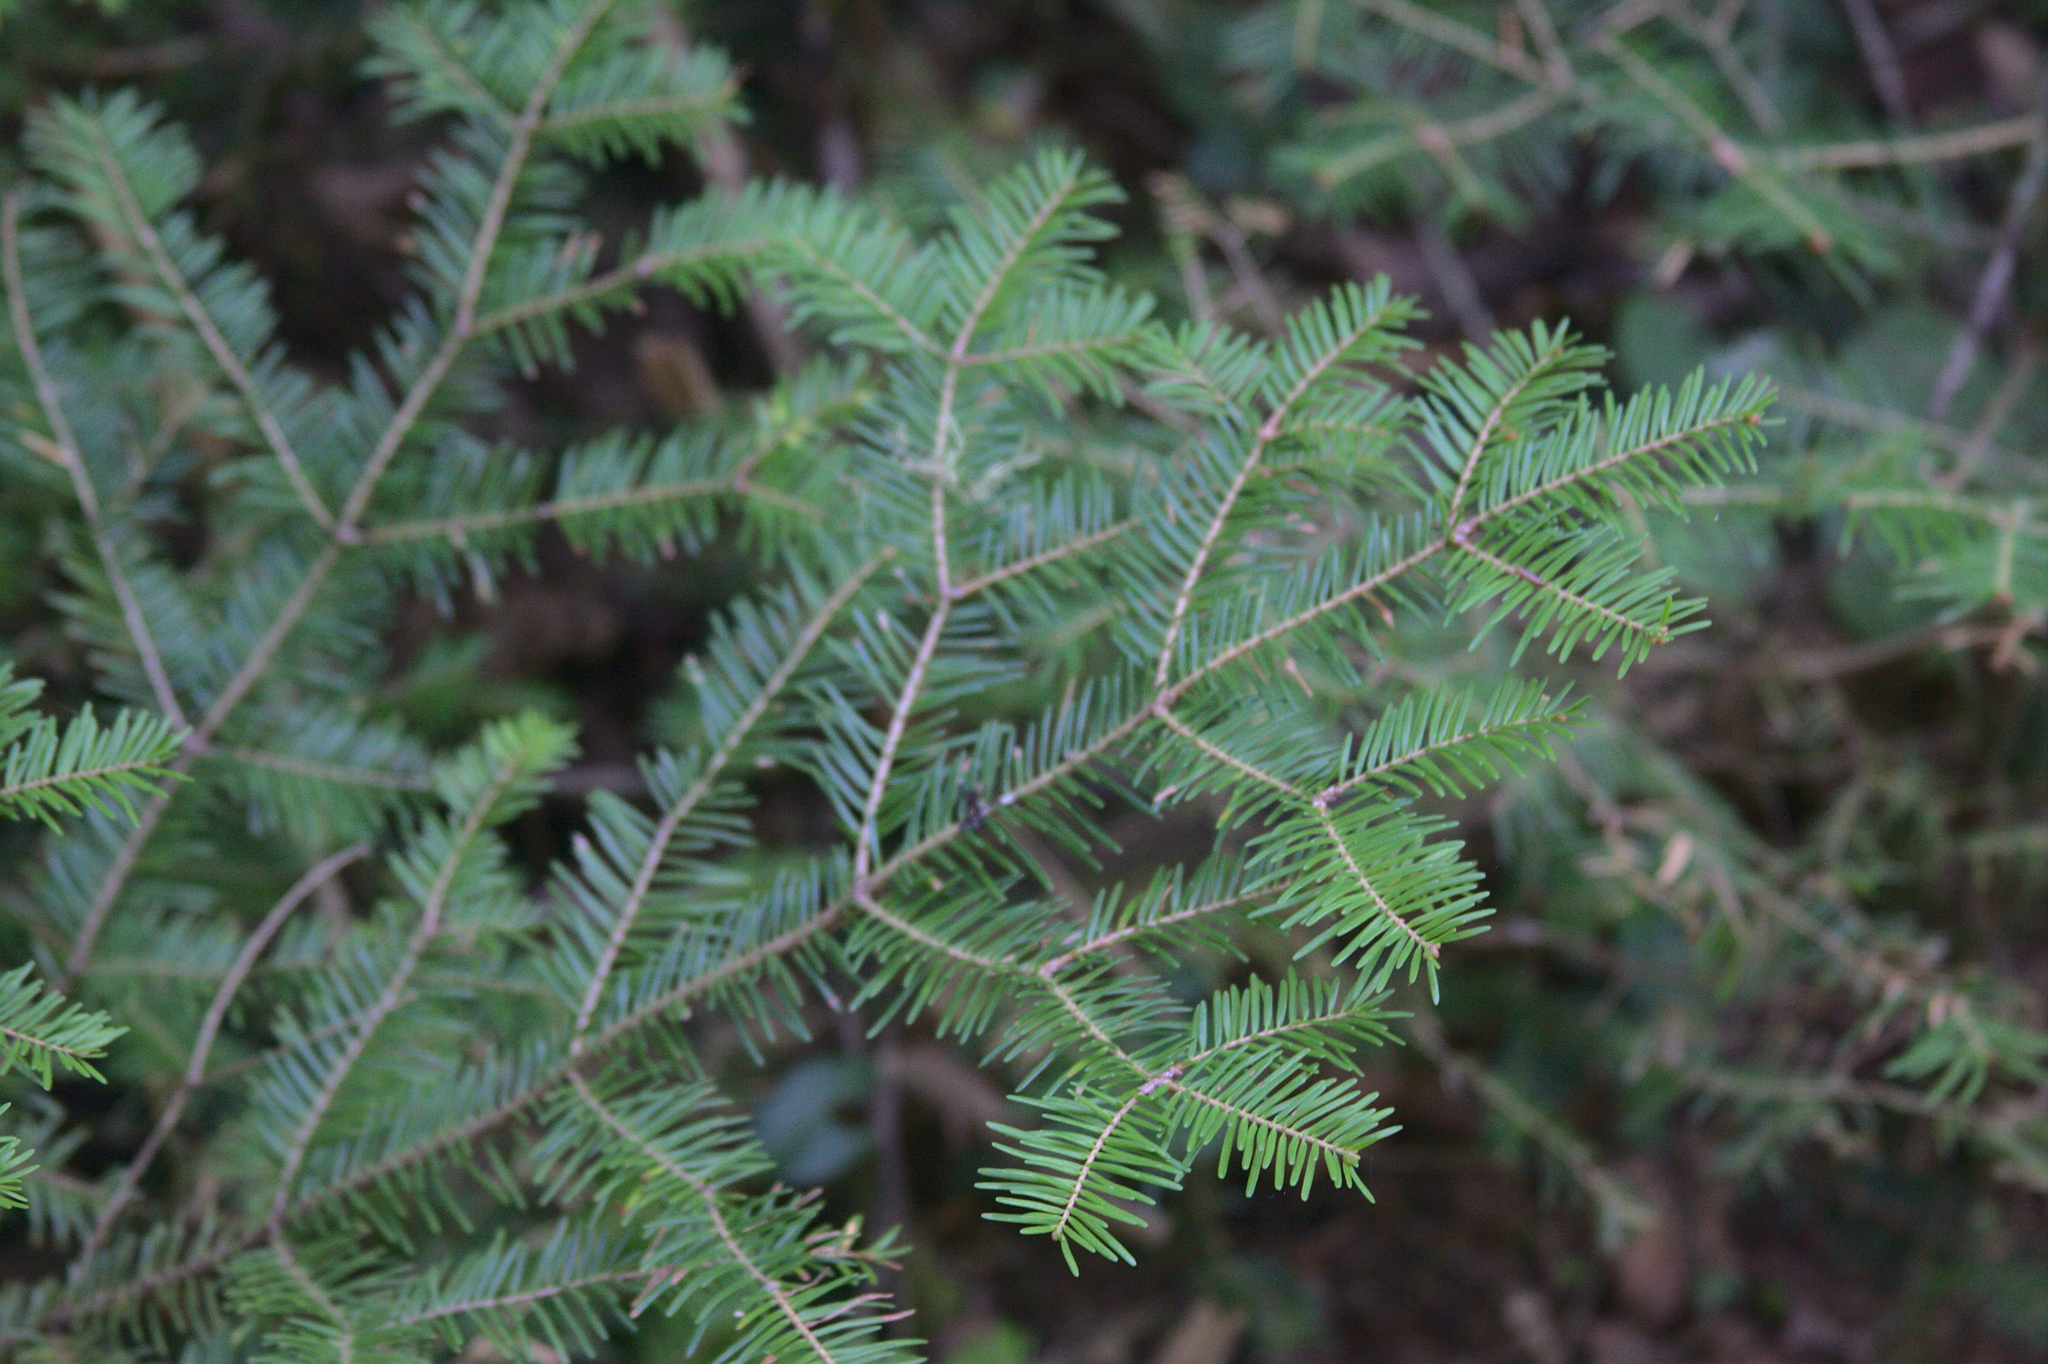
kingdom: Plantae
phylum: Tracheophyta
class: Pinopsida
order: Pinales
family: Pinaceae
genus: Abies
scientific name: Abies balsamea
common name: Balsam fir
